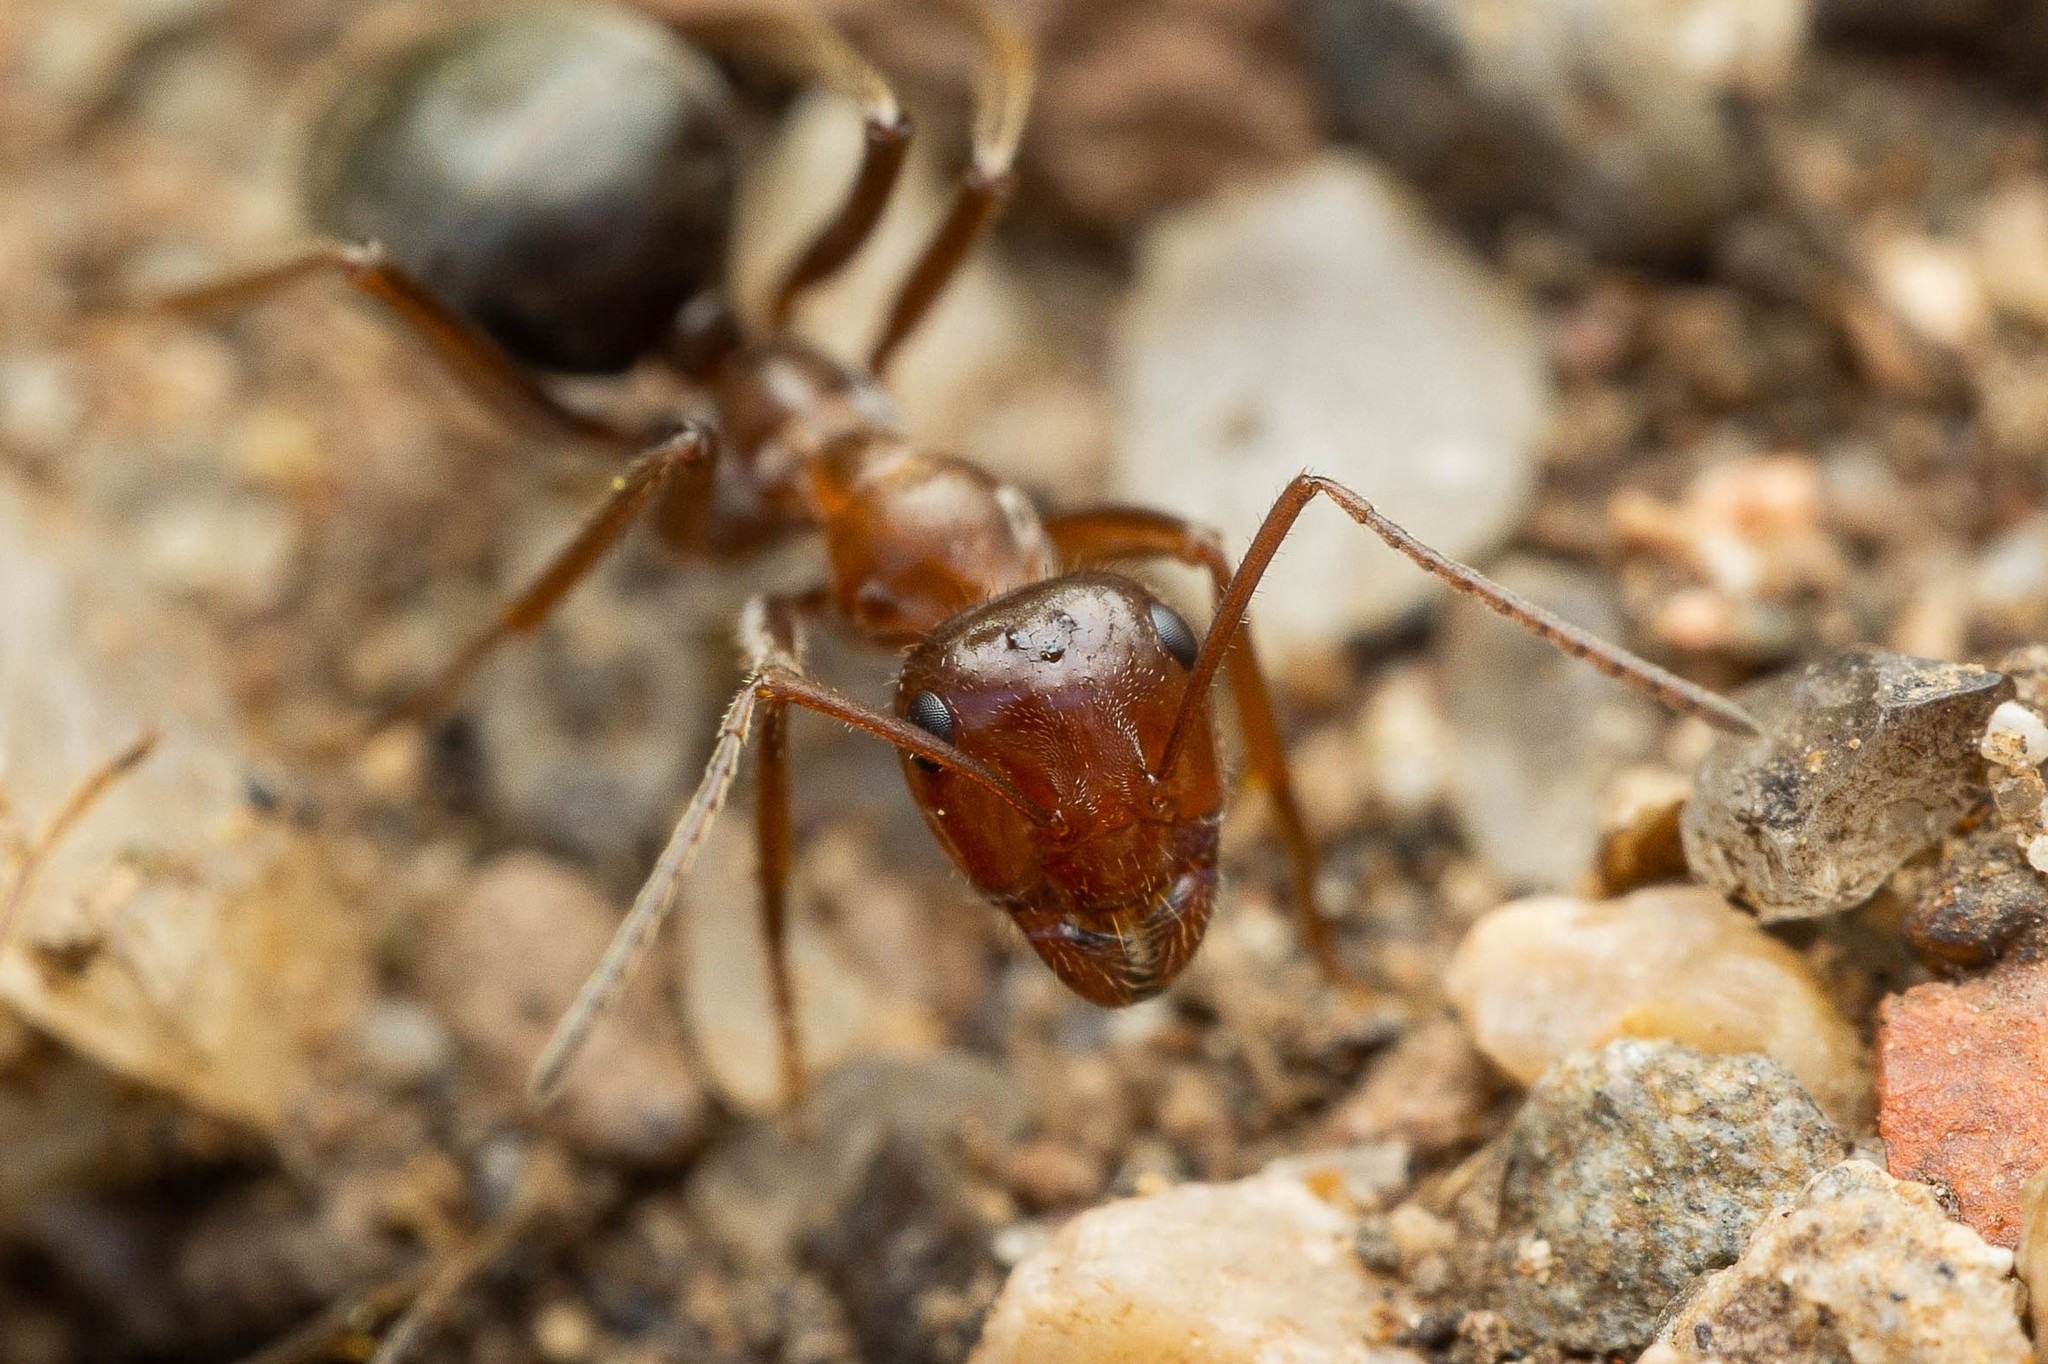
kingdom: Animalia
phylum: Arthropoda
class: Insecta
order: Hymenoptera
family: Formicidae
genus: Myrmecocystus
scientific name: Myrmecocystus mimicus
